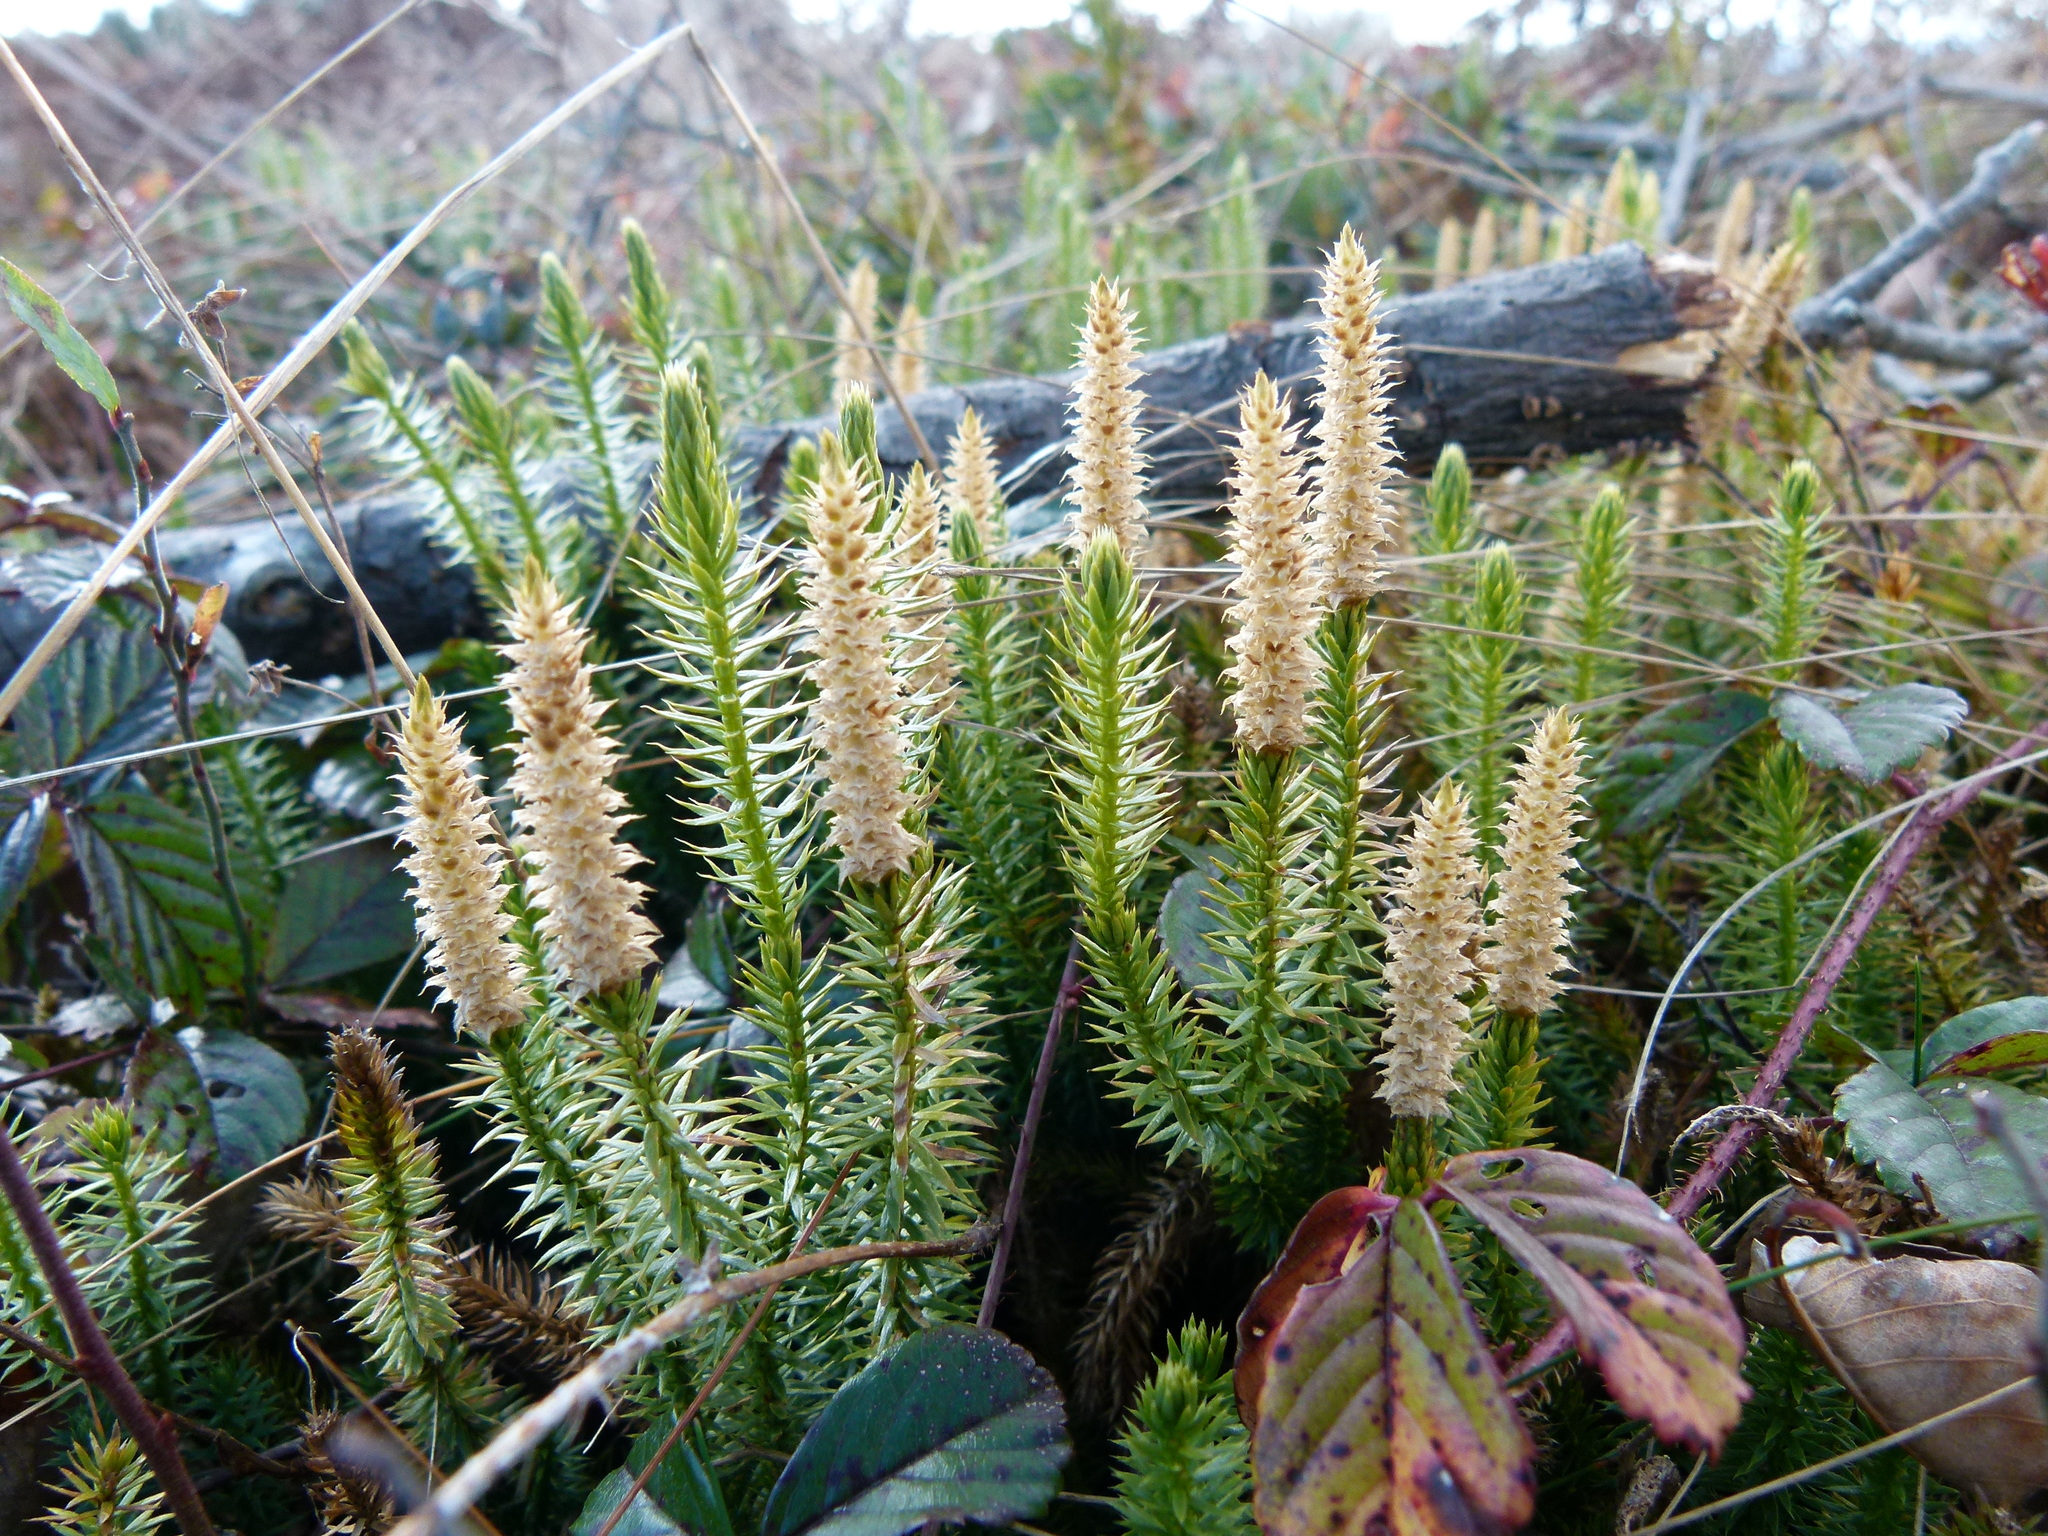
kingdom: Plantae
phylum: Tracheophyta
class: Lycopodiopsida
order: Lycopodiales
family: Lycopodiaceae
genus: Spinulum
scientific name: Spinulum annotinum
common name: Interrupted club-moss
